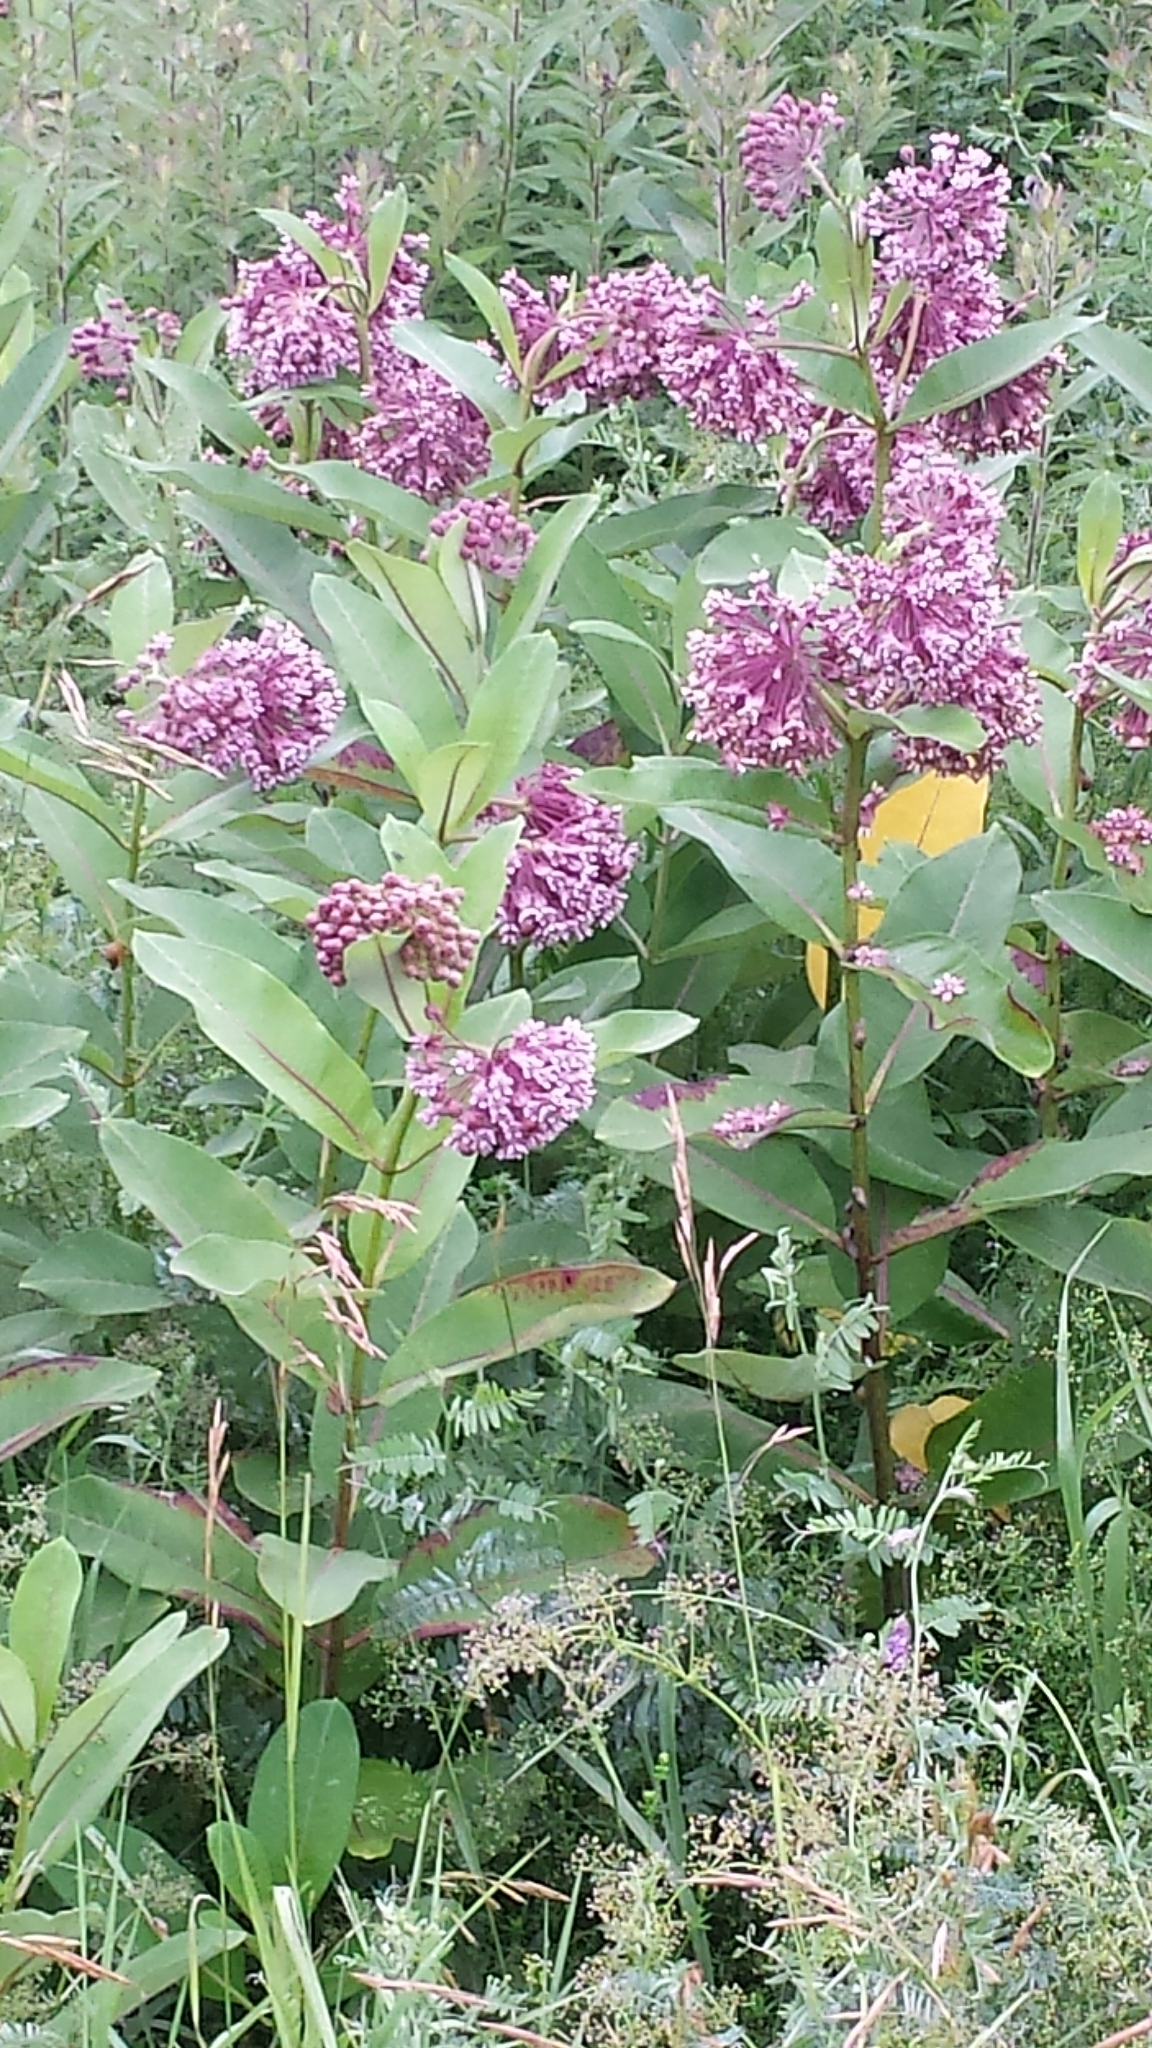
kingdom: Plantae
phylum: Tracheophyta
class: Magnoliopsida
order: Gentianales
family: Apocynaceae
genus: Asclepias
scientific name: Asclepias syriaca
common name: Common milkweed
